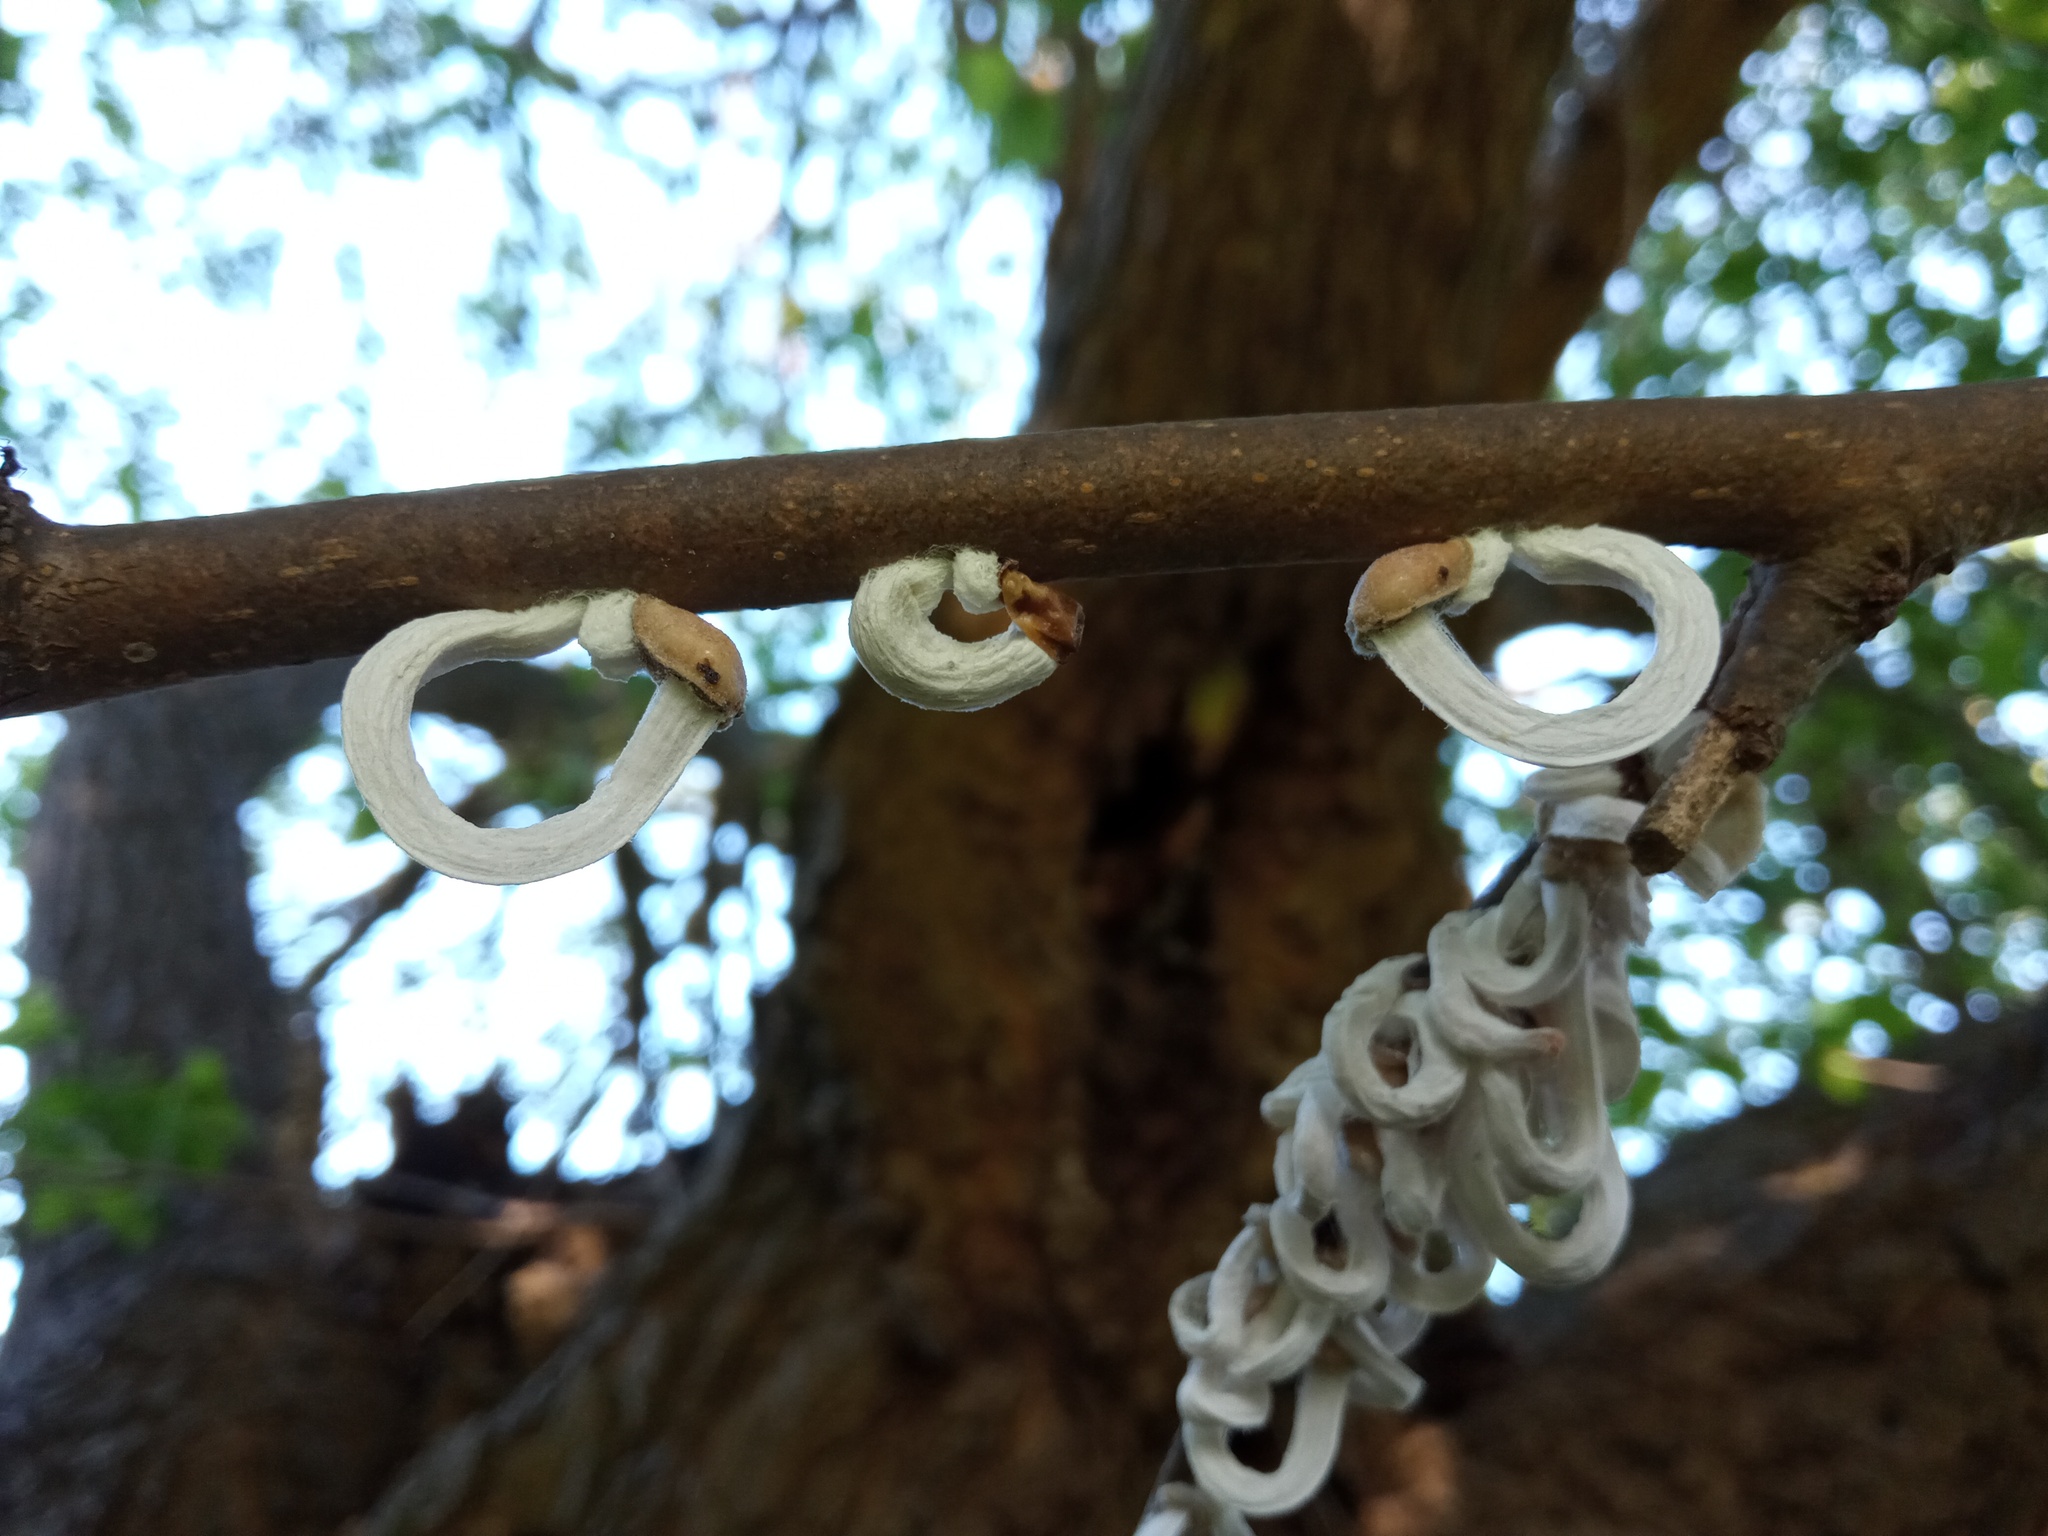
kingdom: Animalia
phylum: Arthropoda
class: Insecta
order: Hemiptera
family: Coccidae
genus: Takahashia
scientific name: Takahashia japonica
